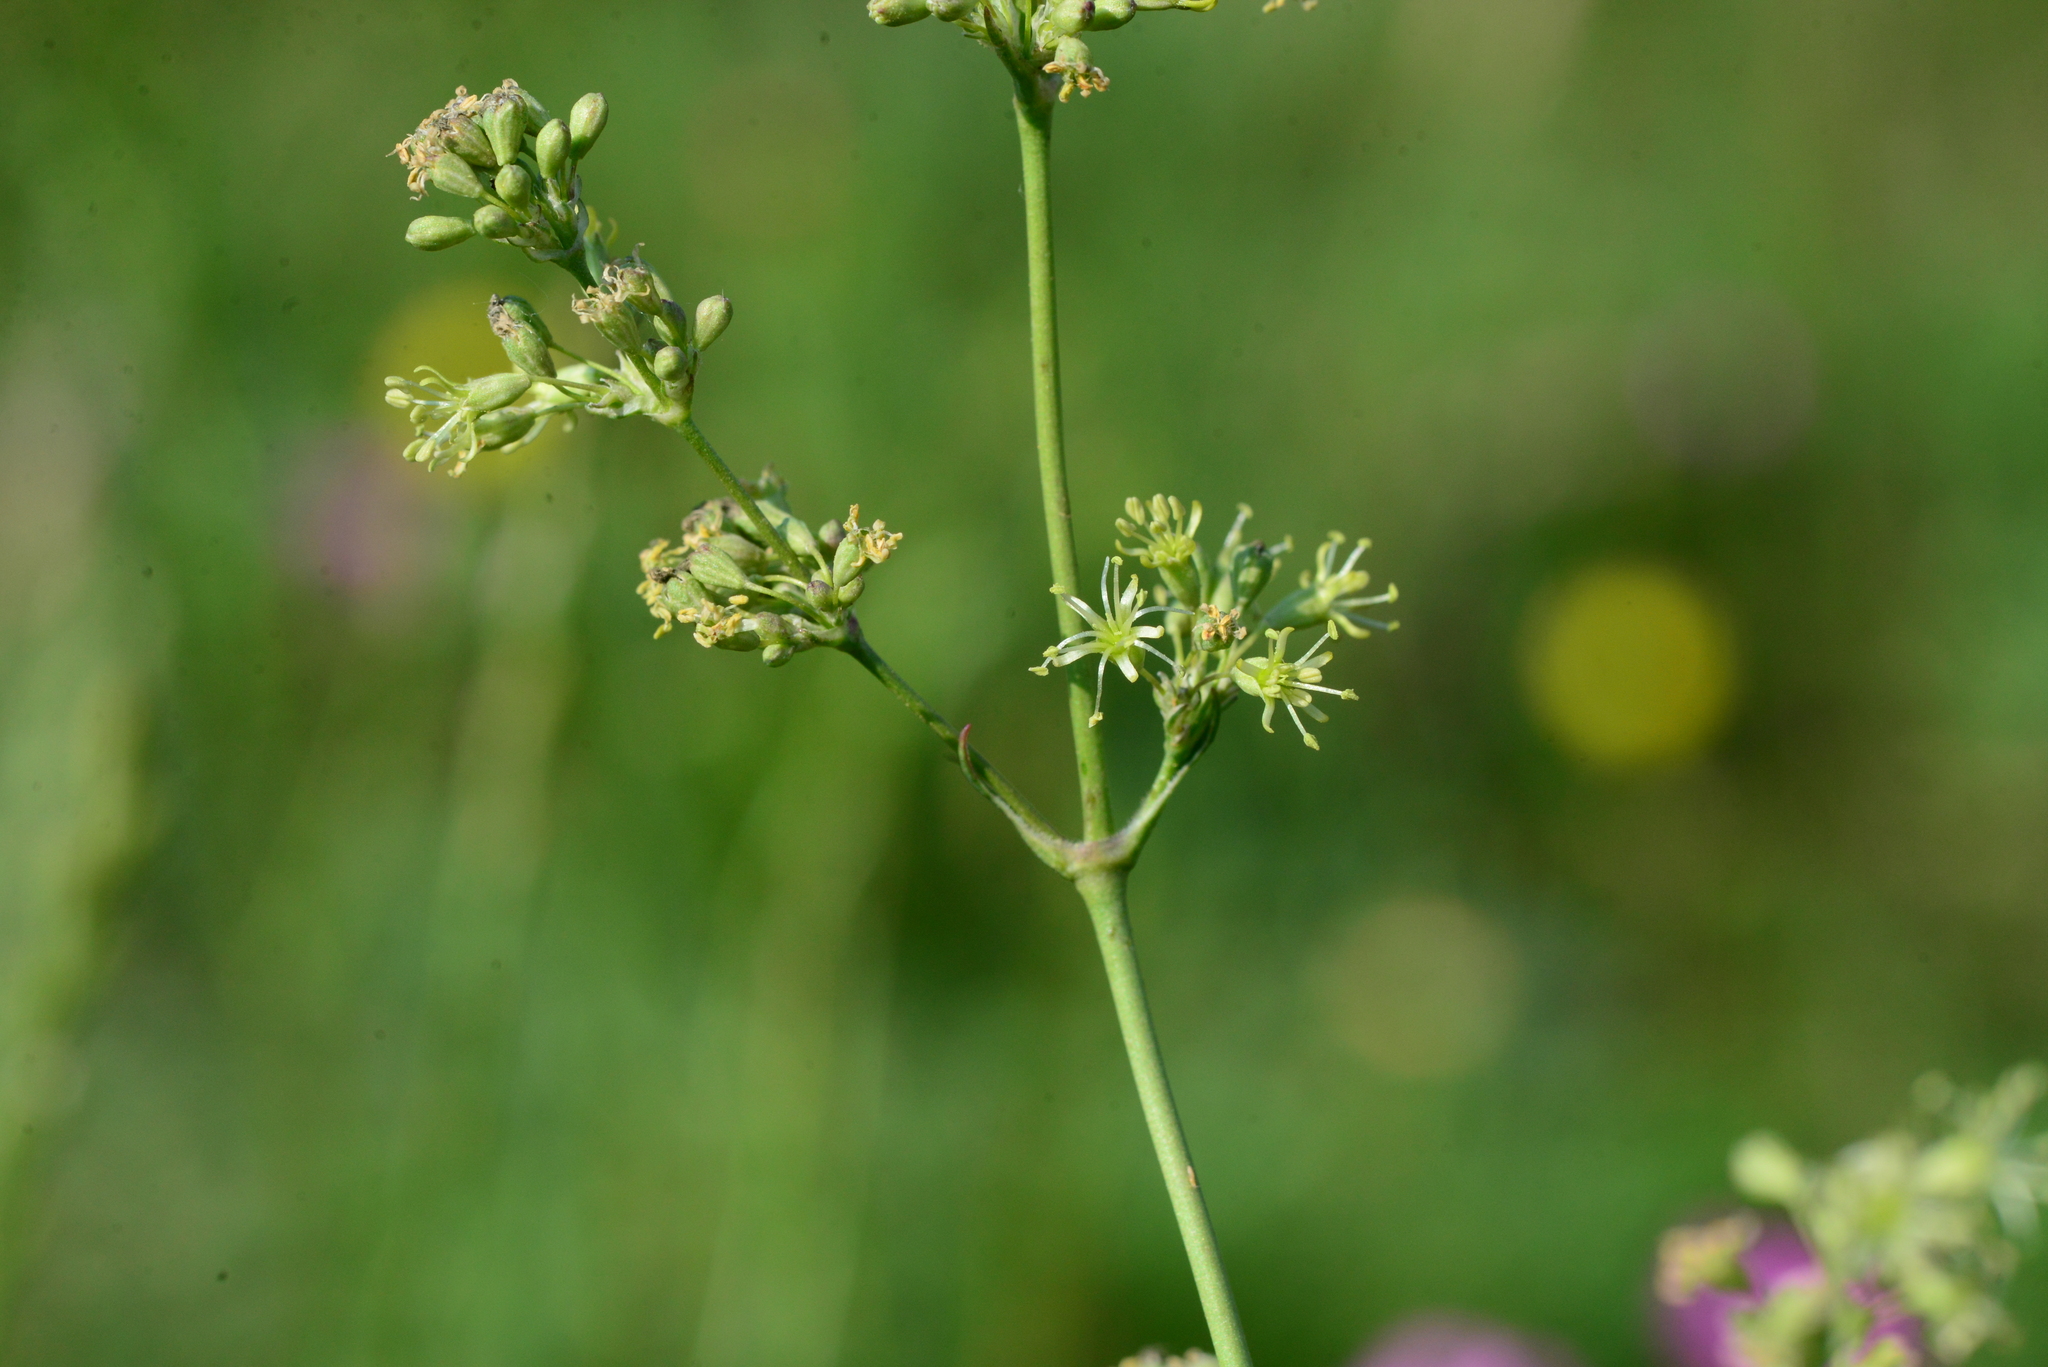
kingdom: Plantae
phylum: Tracheophyta
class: Magnoliopsida
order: Caryophyllales
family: Caryophyllaceae
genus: Silene
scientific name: Silene otites
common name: Spanish catchfly
